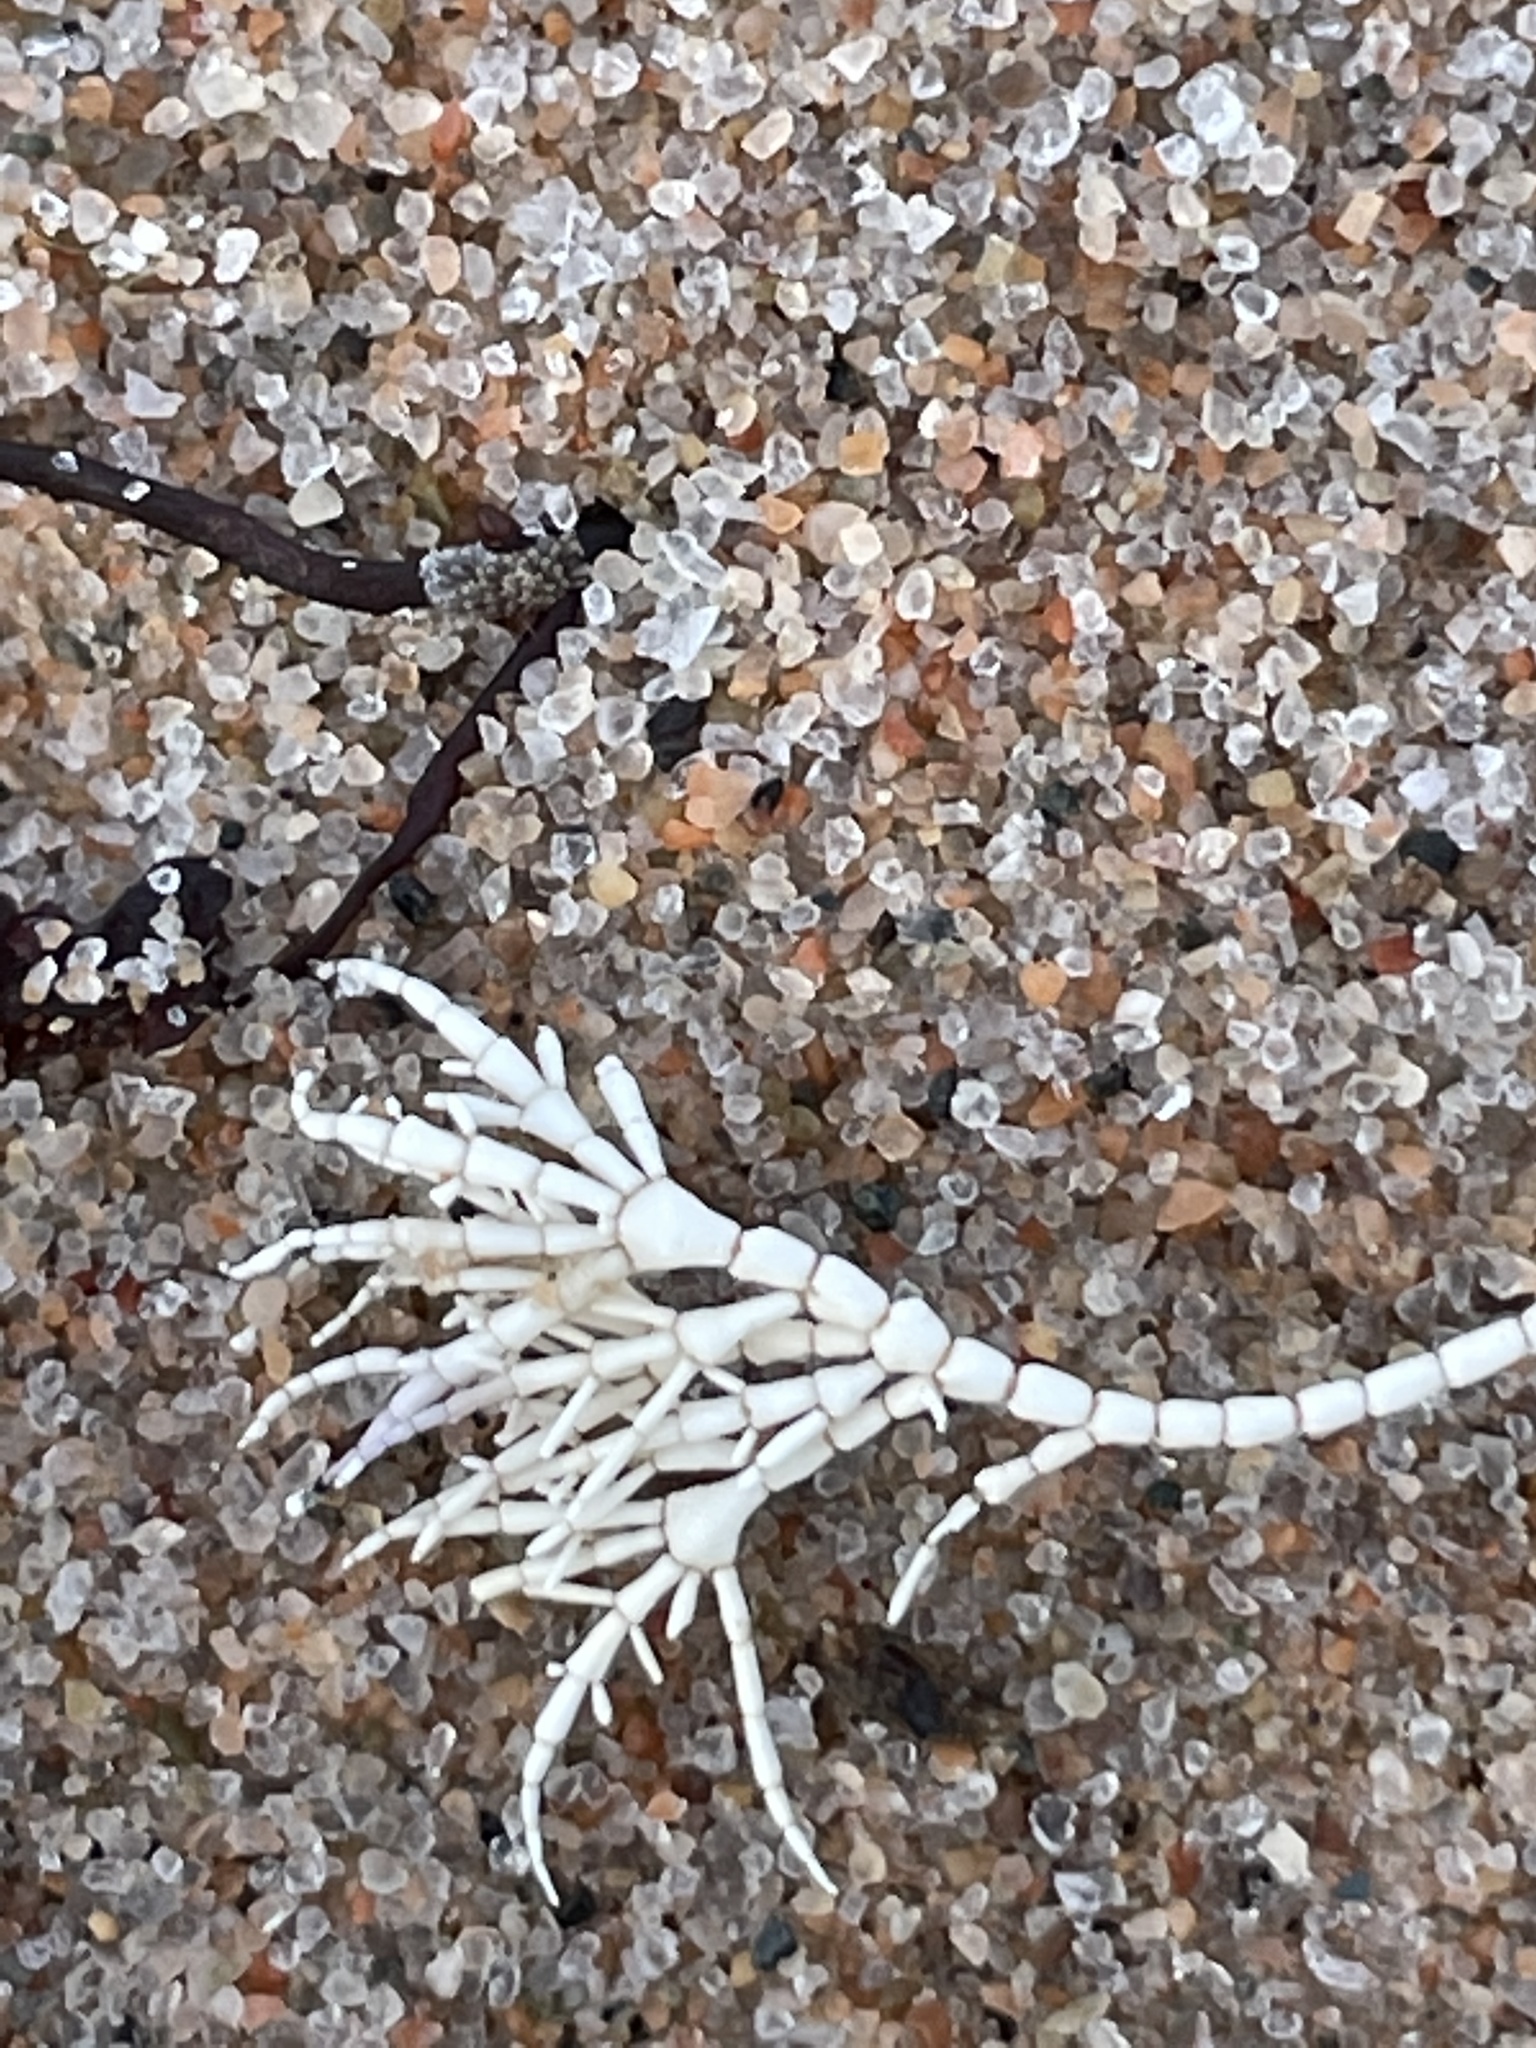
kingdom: Plantae
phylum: Rhodophyta
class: Florideophyceae
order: Corallinales
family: Corallinaceae
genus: Corallina
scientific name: Corallina officinalis
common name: Coral weed
